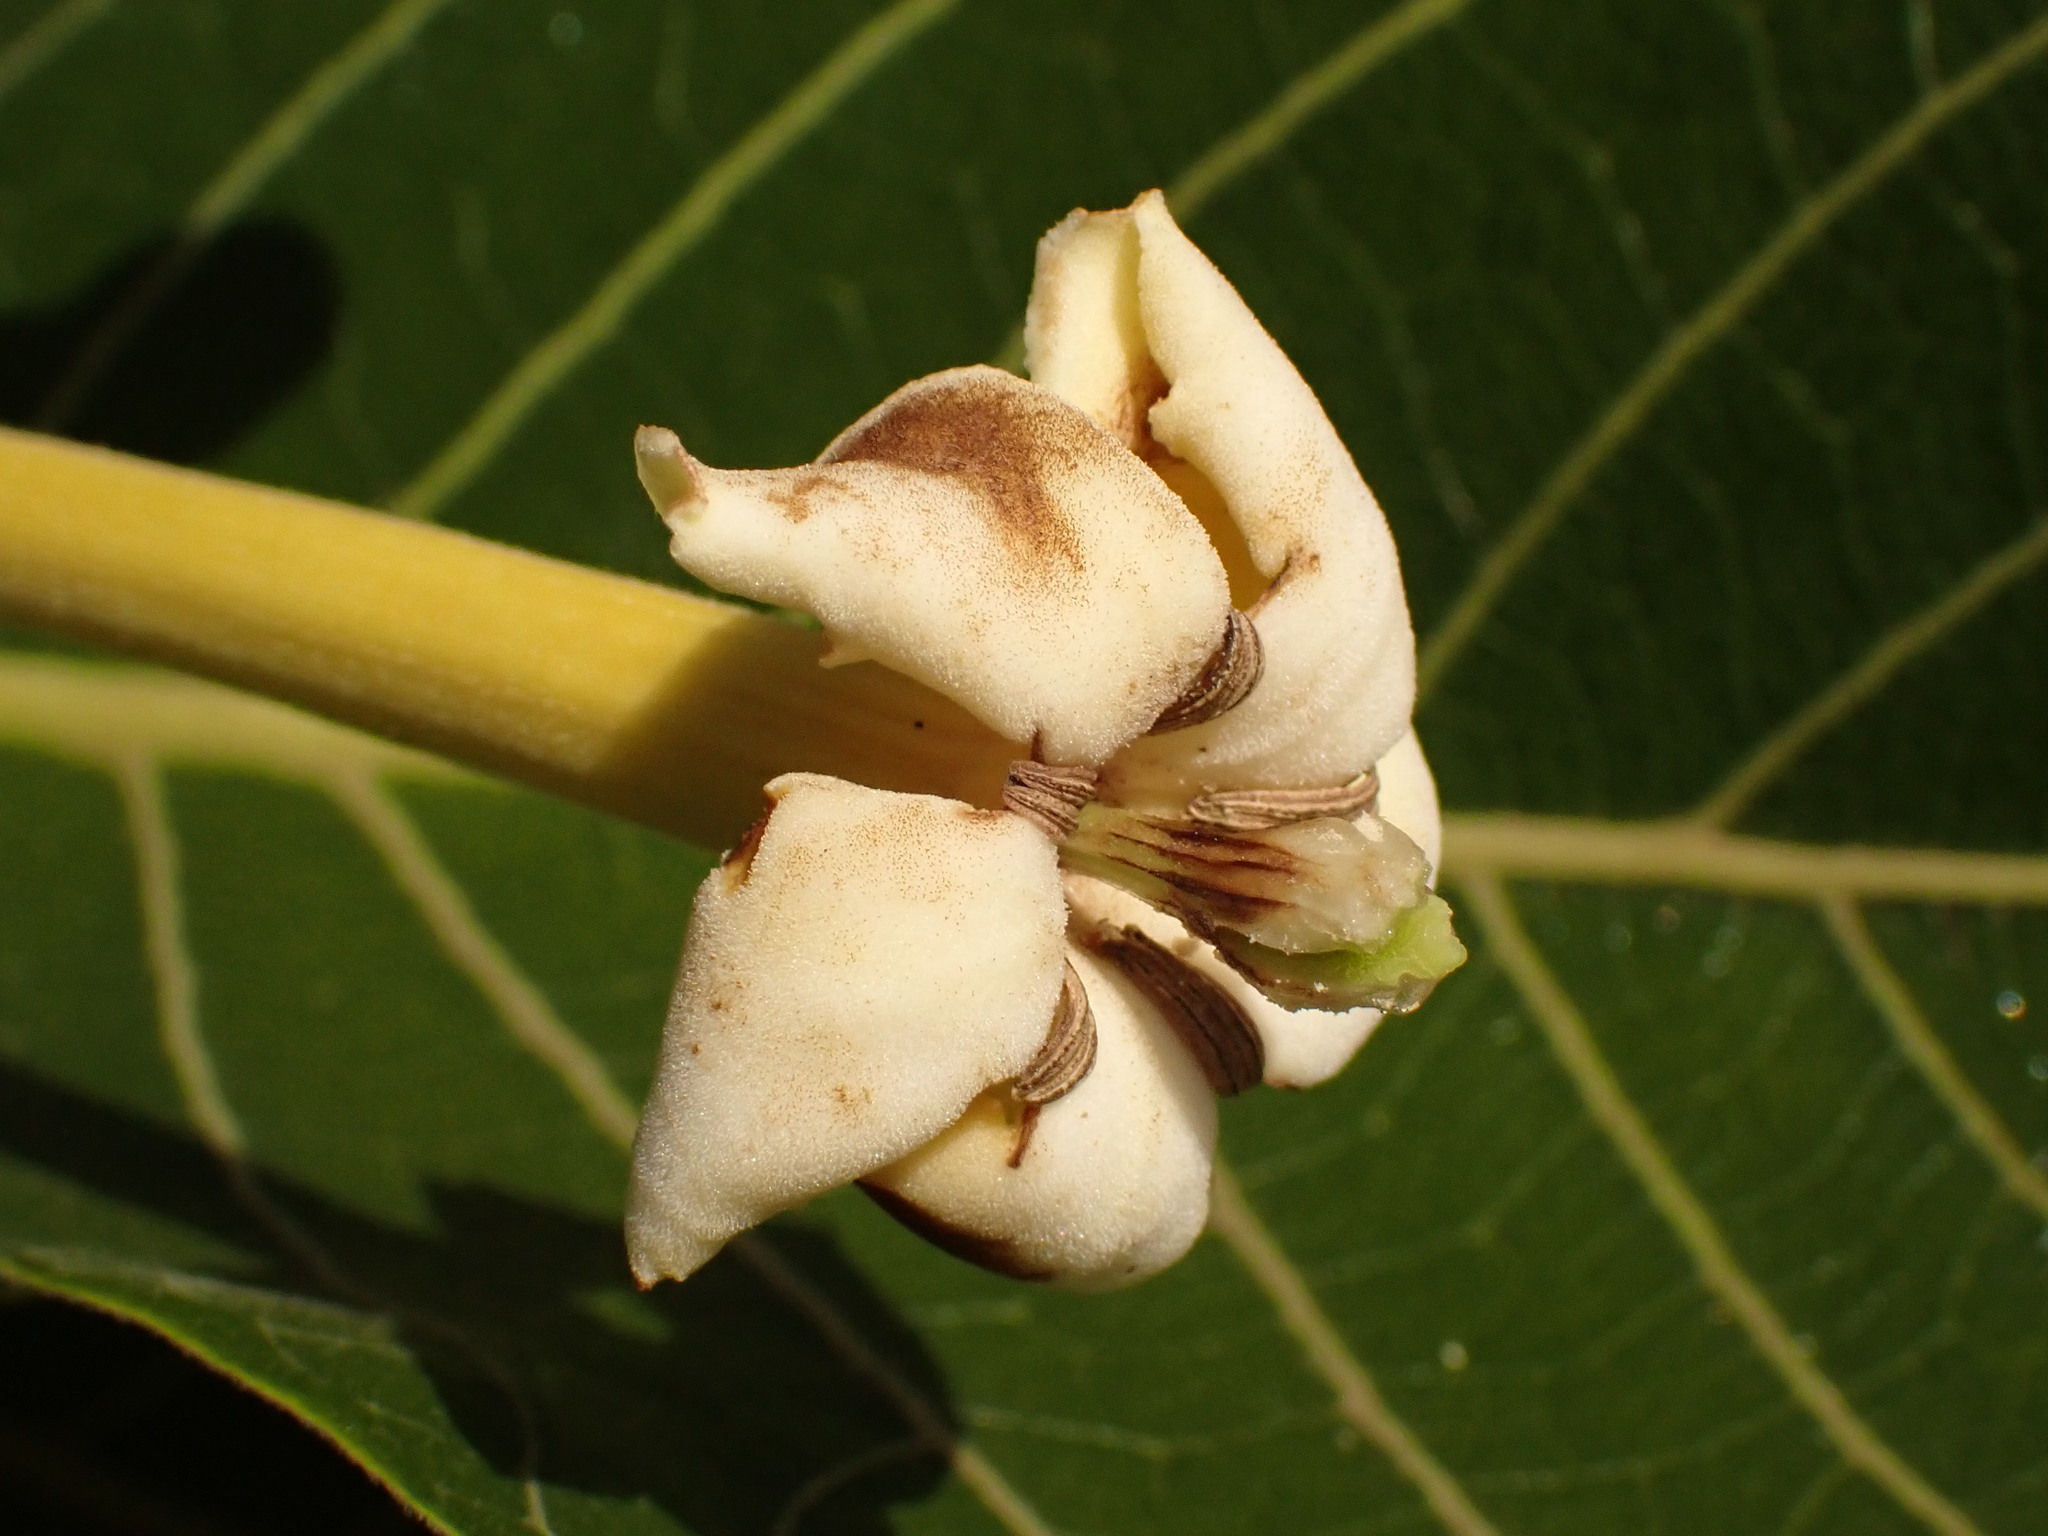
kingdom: Plantae
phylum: Tracheophyta
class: Magnoliopsida
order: Gentianales
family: Rubiaceae
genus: Tocoyena
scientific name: Tocoyena formosa
